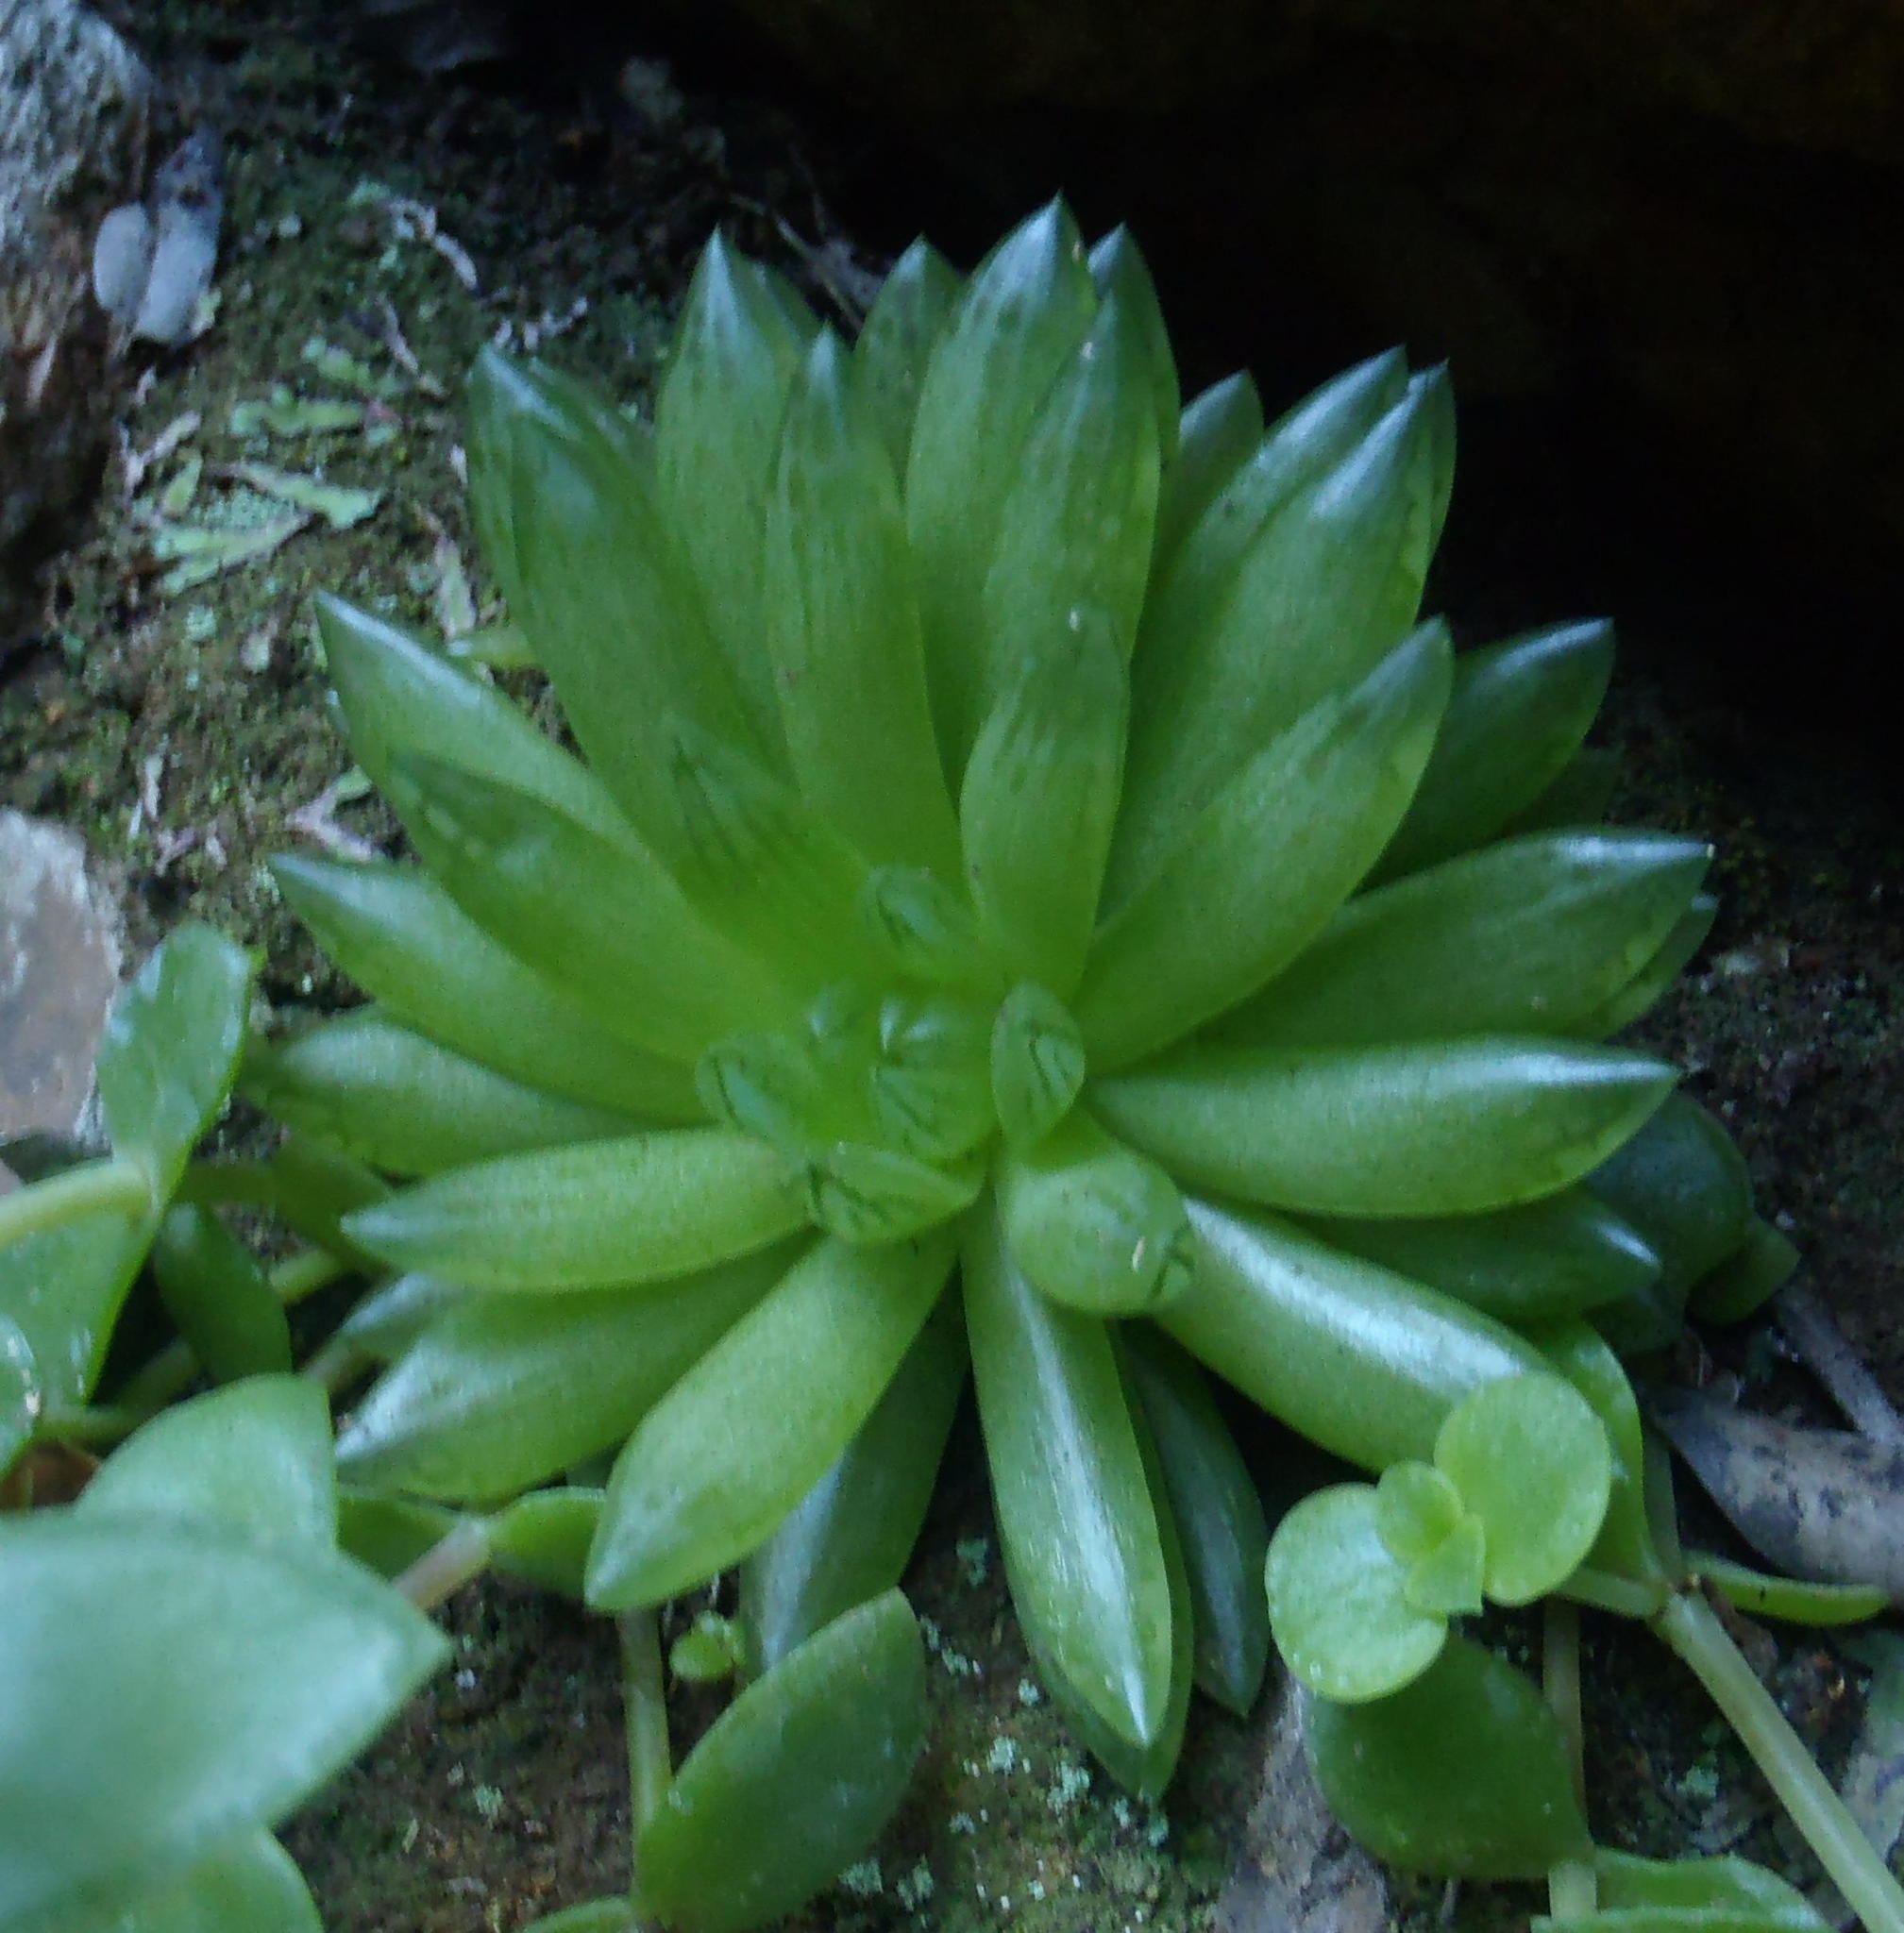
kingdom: Plantae
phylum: Tracheophyta
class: Liliopsida
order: Asparagales
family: Asphodelaceae
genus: Haworthia
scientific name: Haworthia transiens
